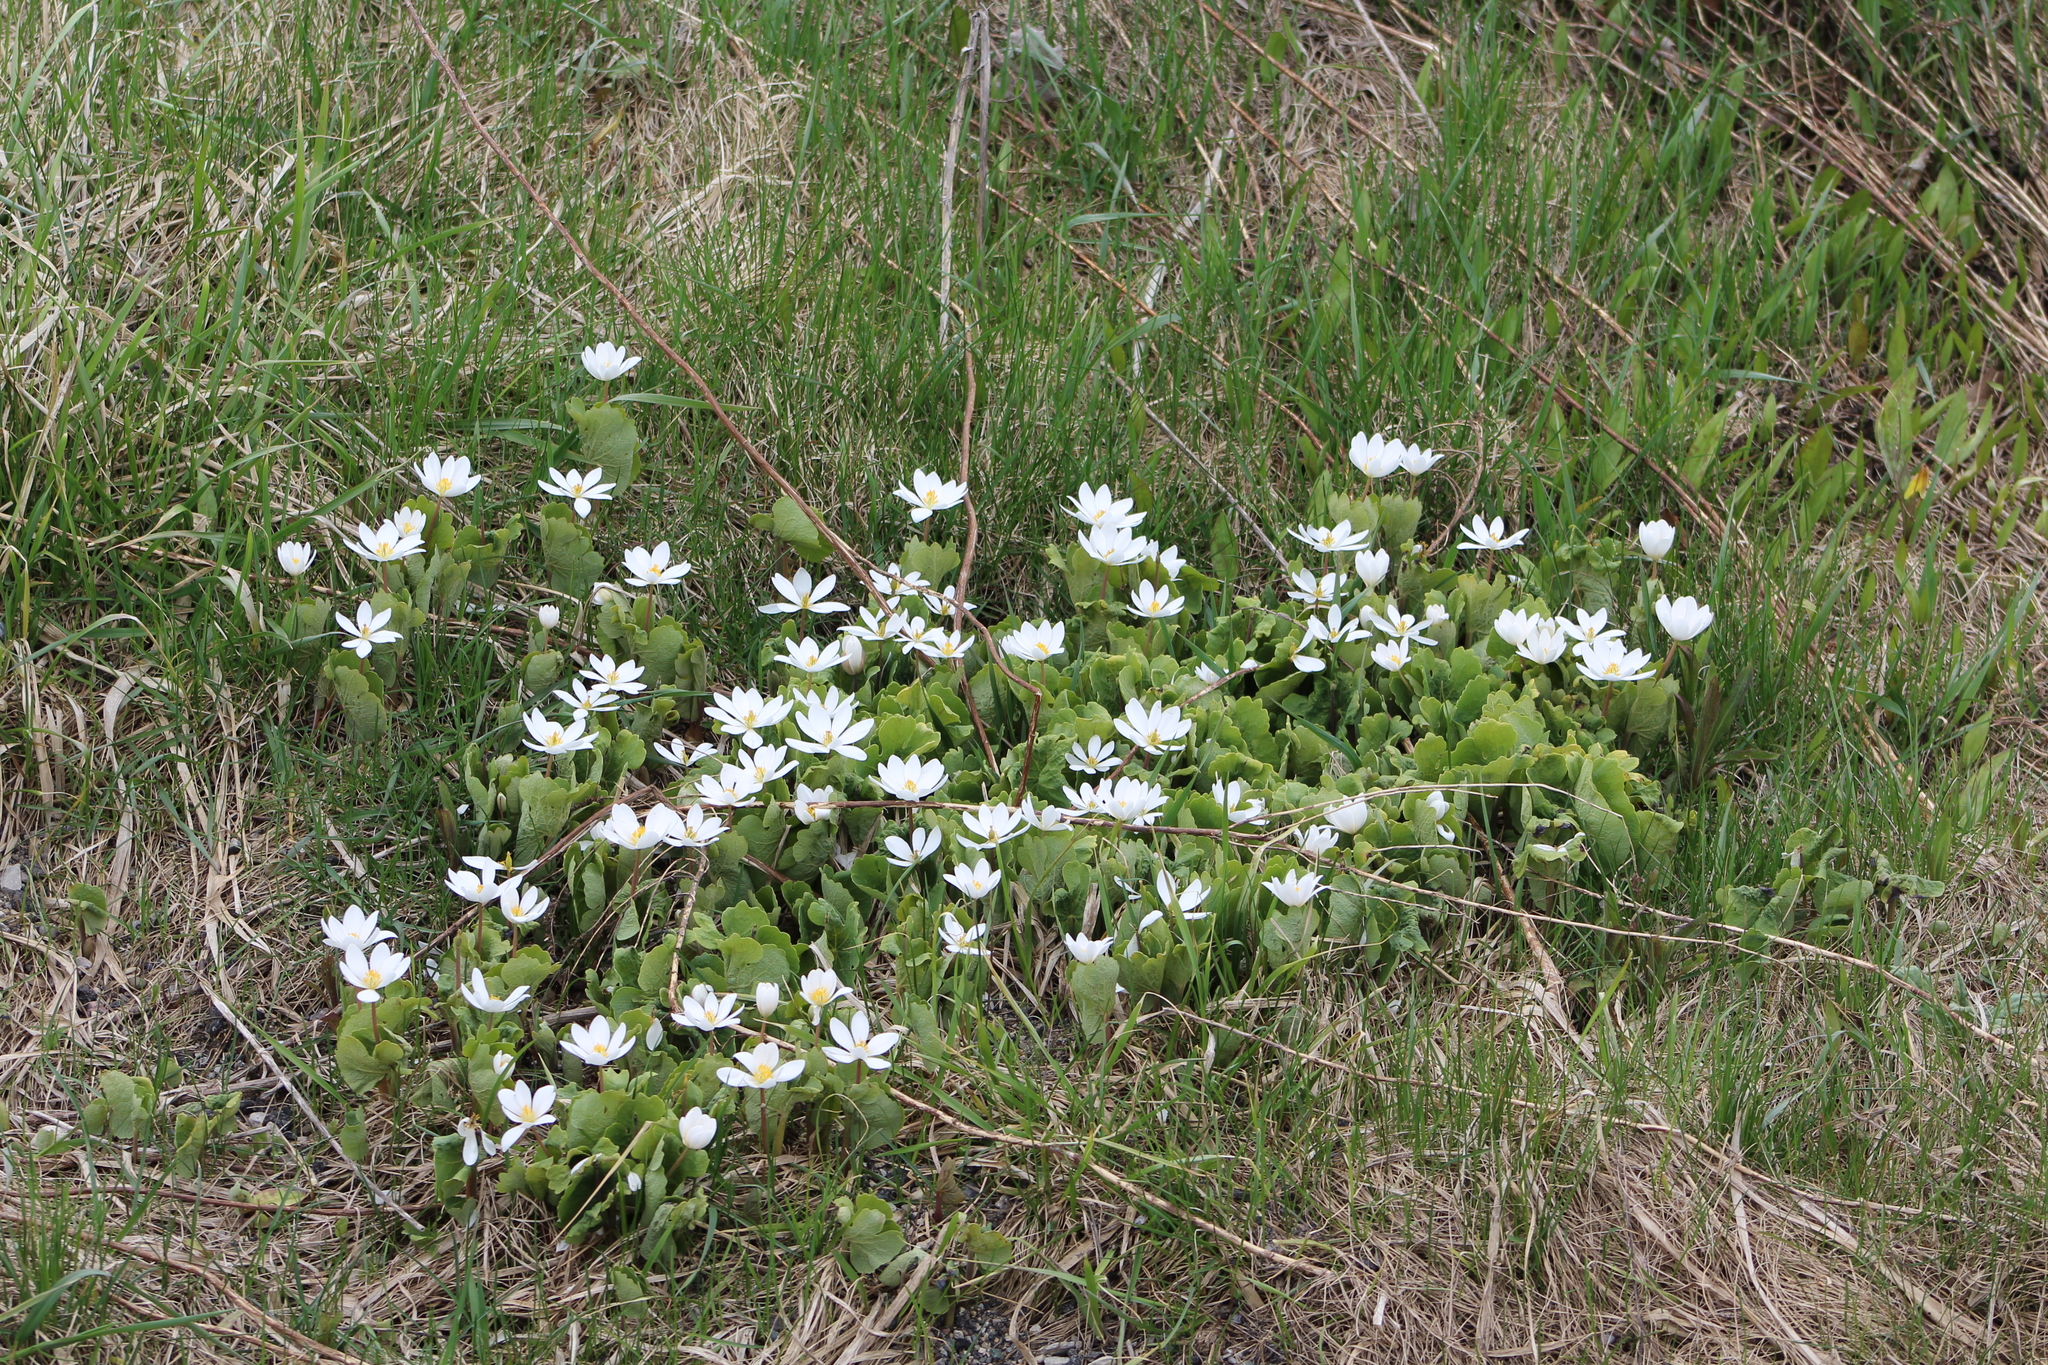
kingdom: Plantae
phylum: Tracheophyta
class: Magnoliopsida
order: Ranunculales
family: Papaveraceae
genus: Sanguinaria
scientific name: Sanguinaria canadensis
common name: Bloodroot
